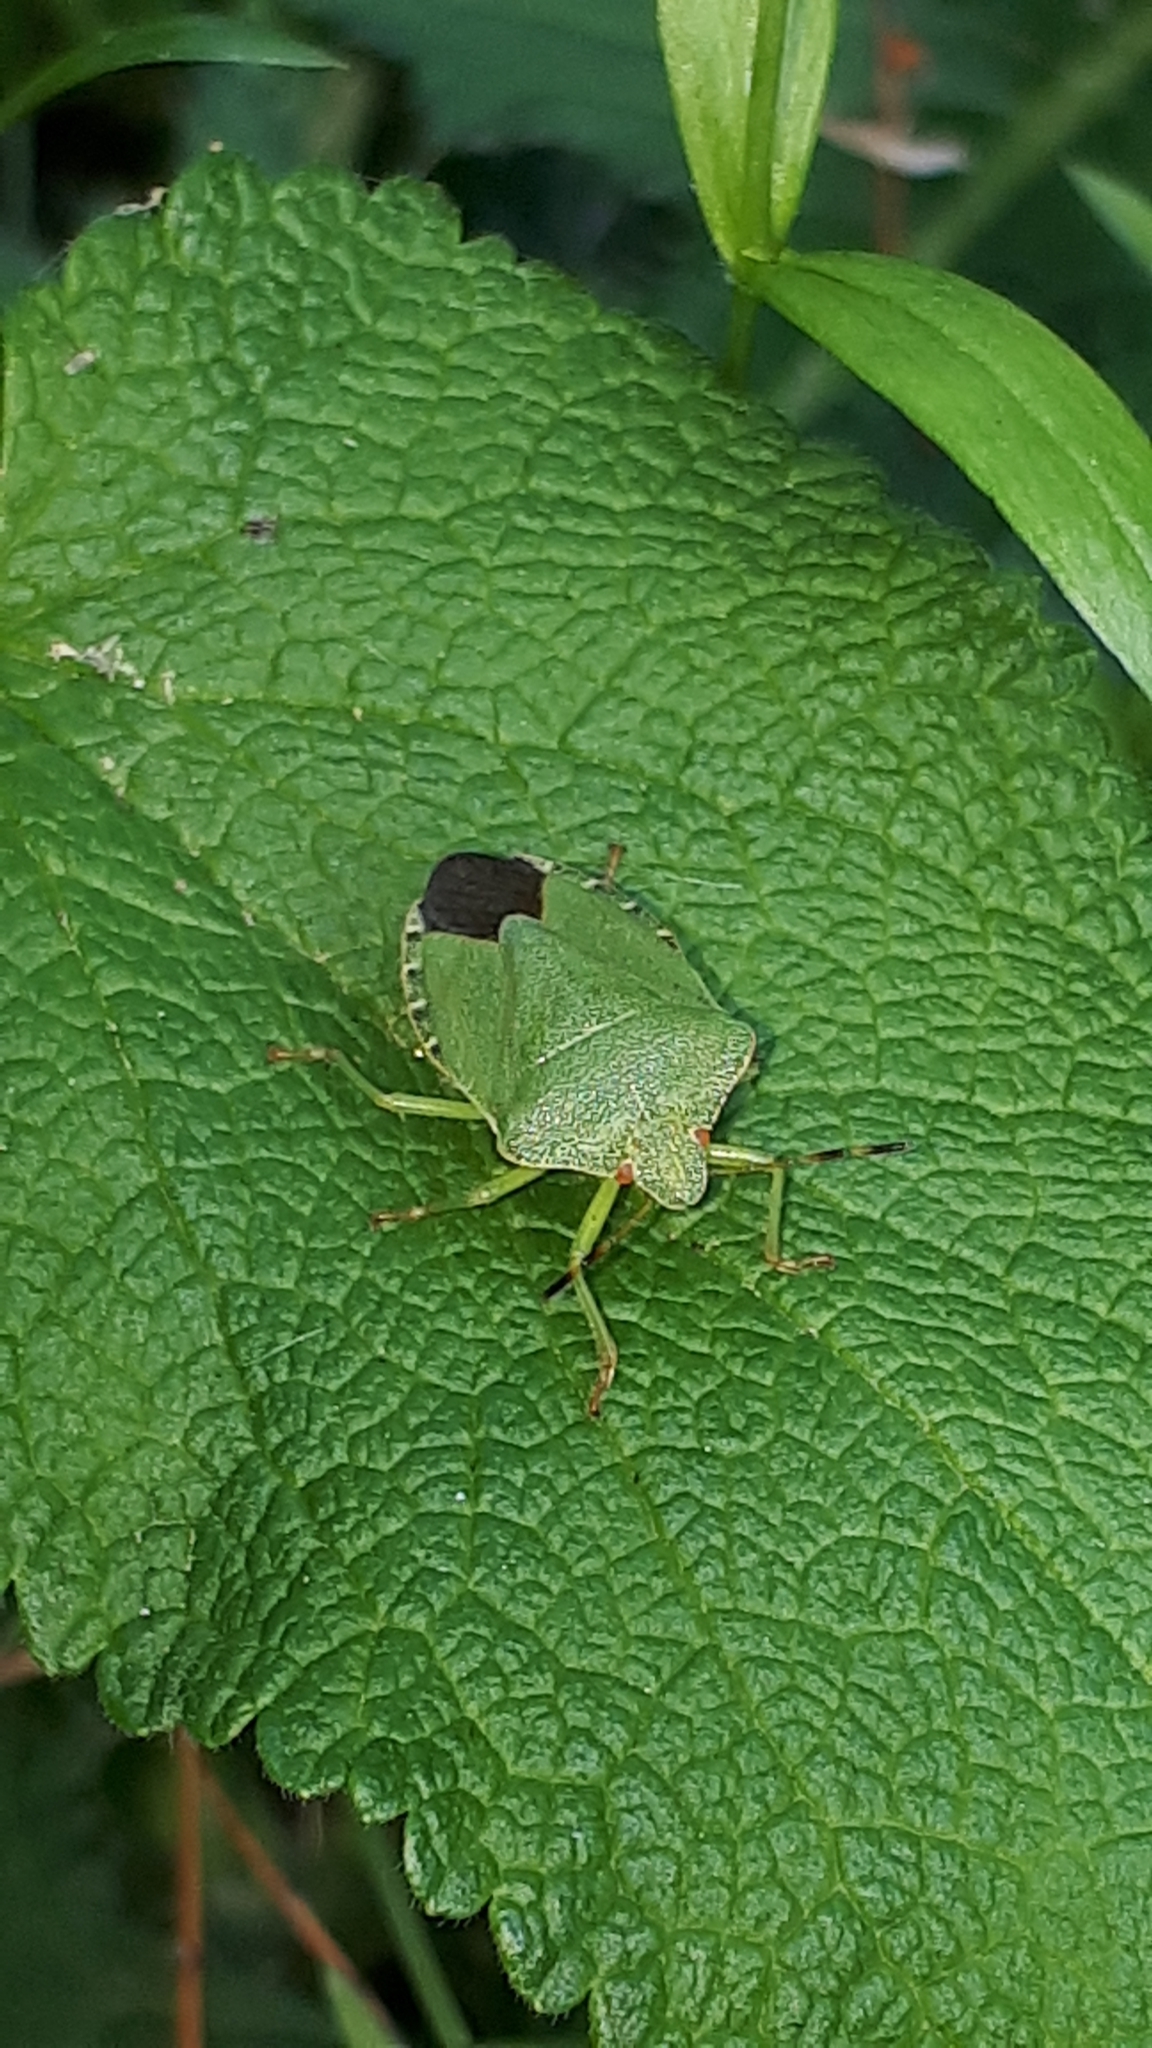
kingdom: Animalia
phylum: Arthropoda
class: Insecta
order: Hemiptera
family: Pentatomidae
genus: Palomena
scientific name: Palomena prasina
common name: Green shieldbug
